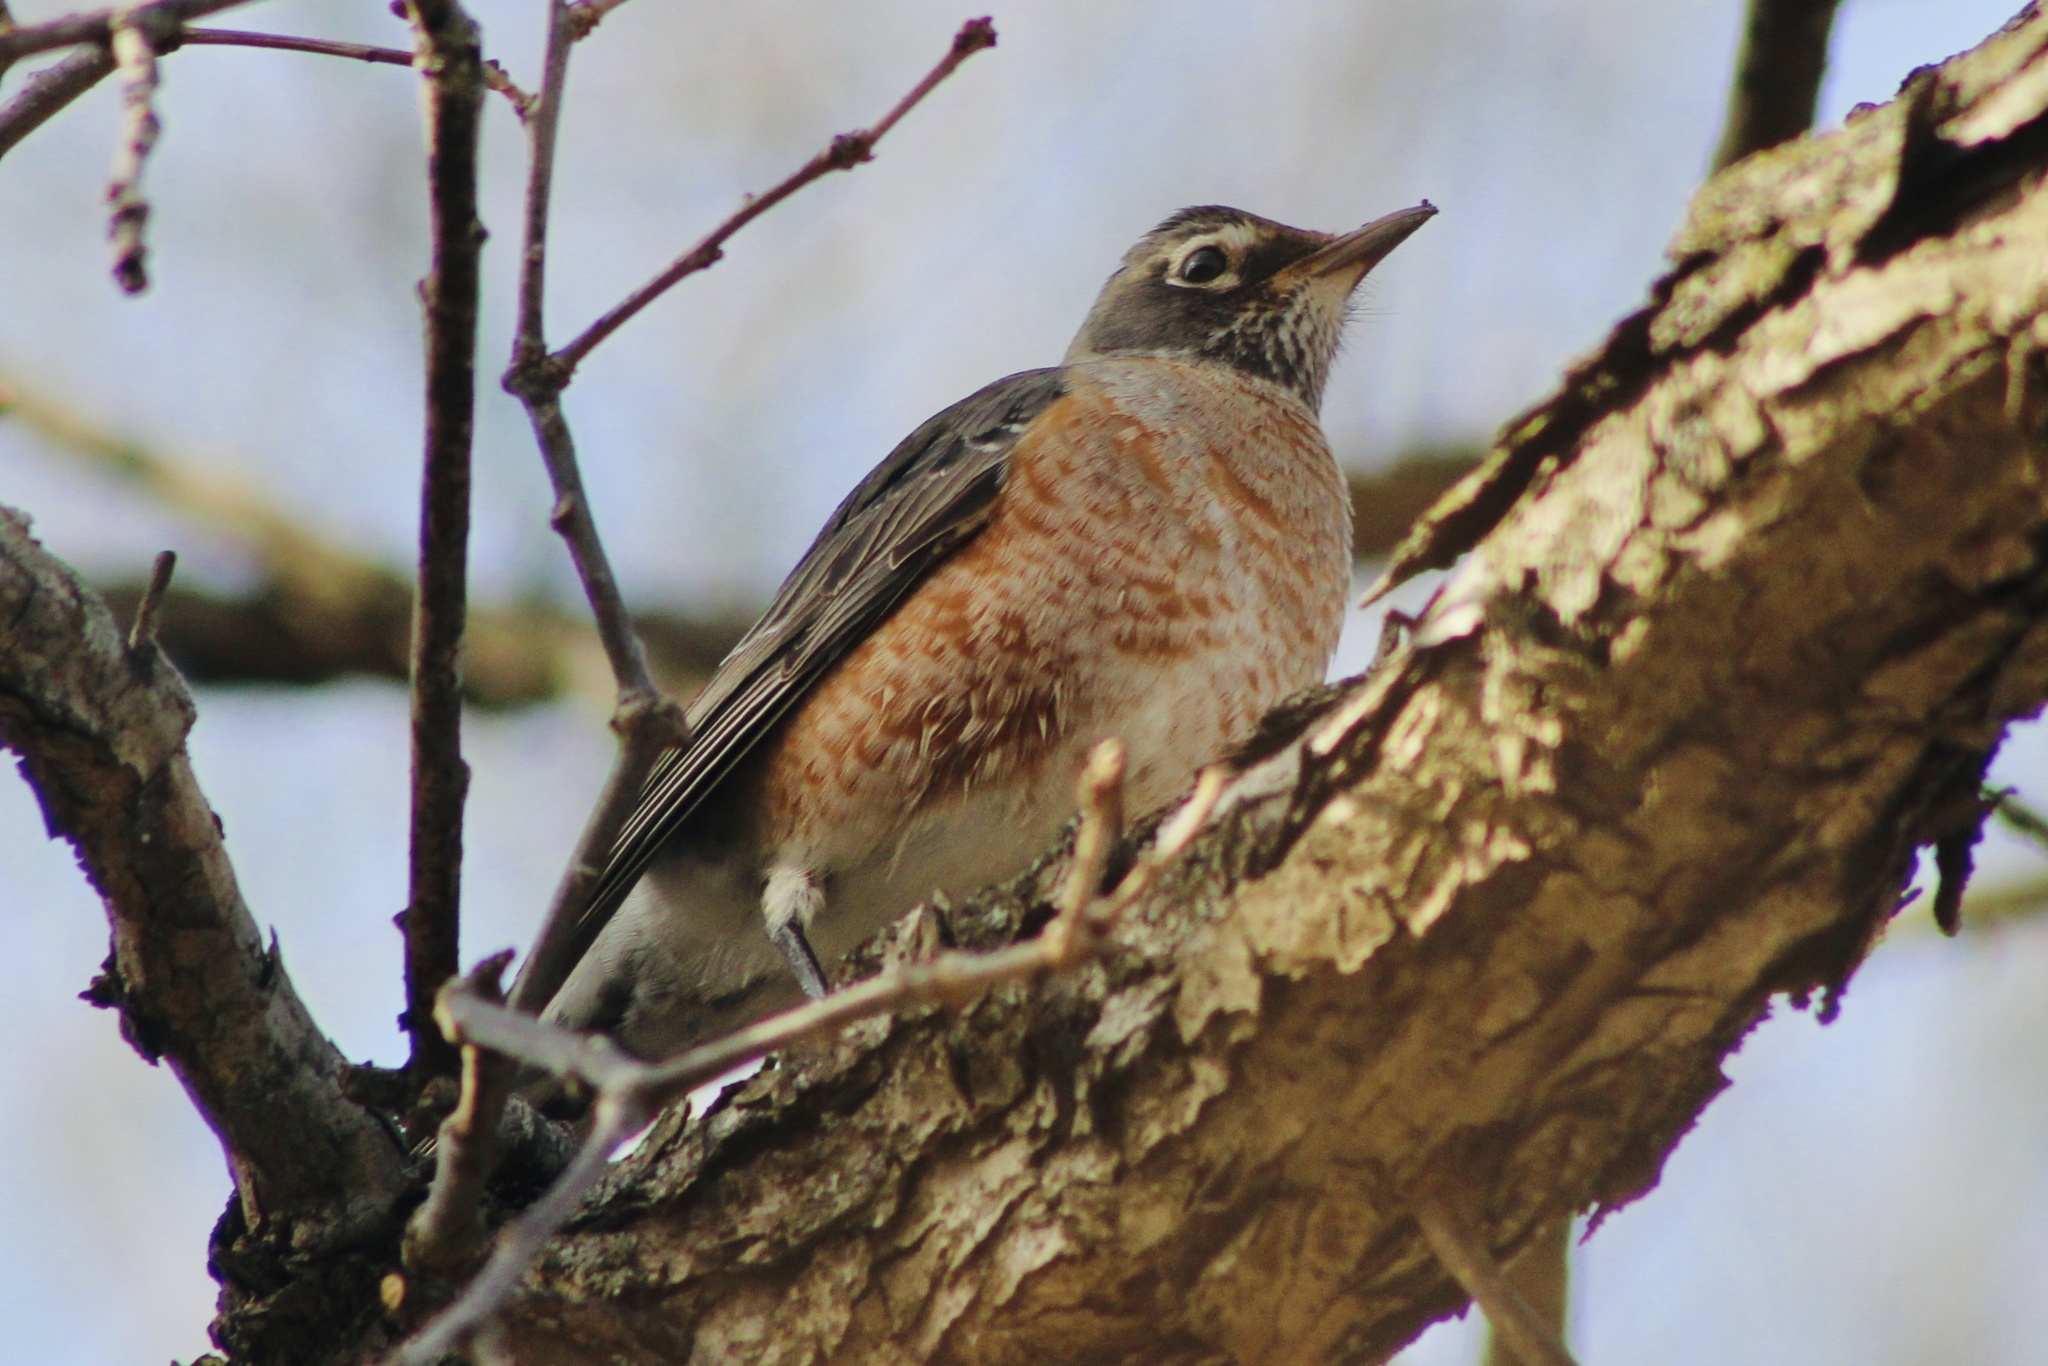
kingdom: Animalia
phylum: Chordata
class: Aves
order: Passeriformes
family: Turdidae
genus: Turdus
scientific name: Turdus migratorius
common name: American robin
